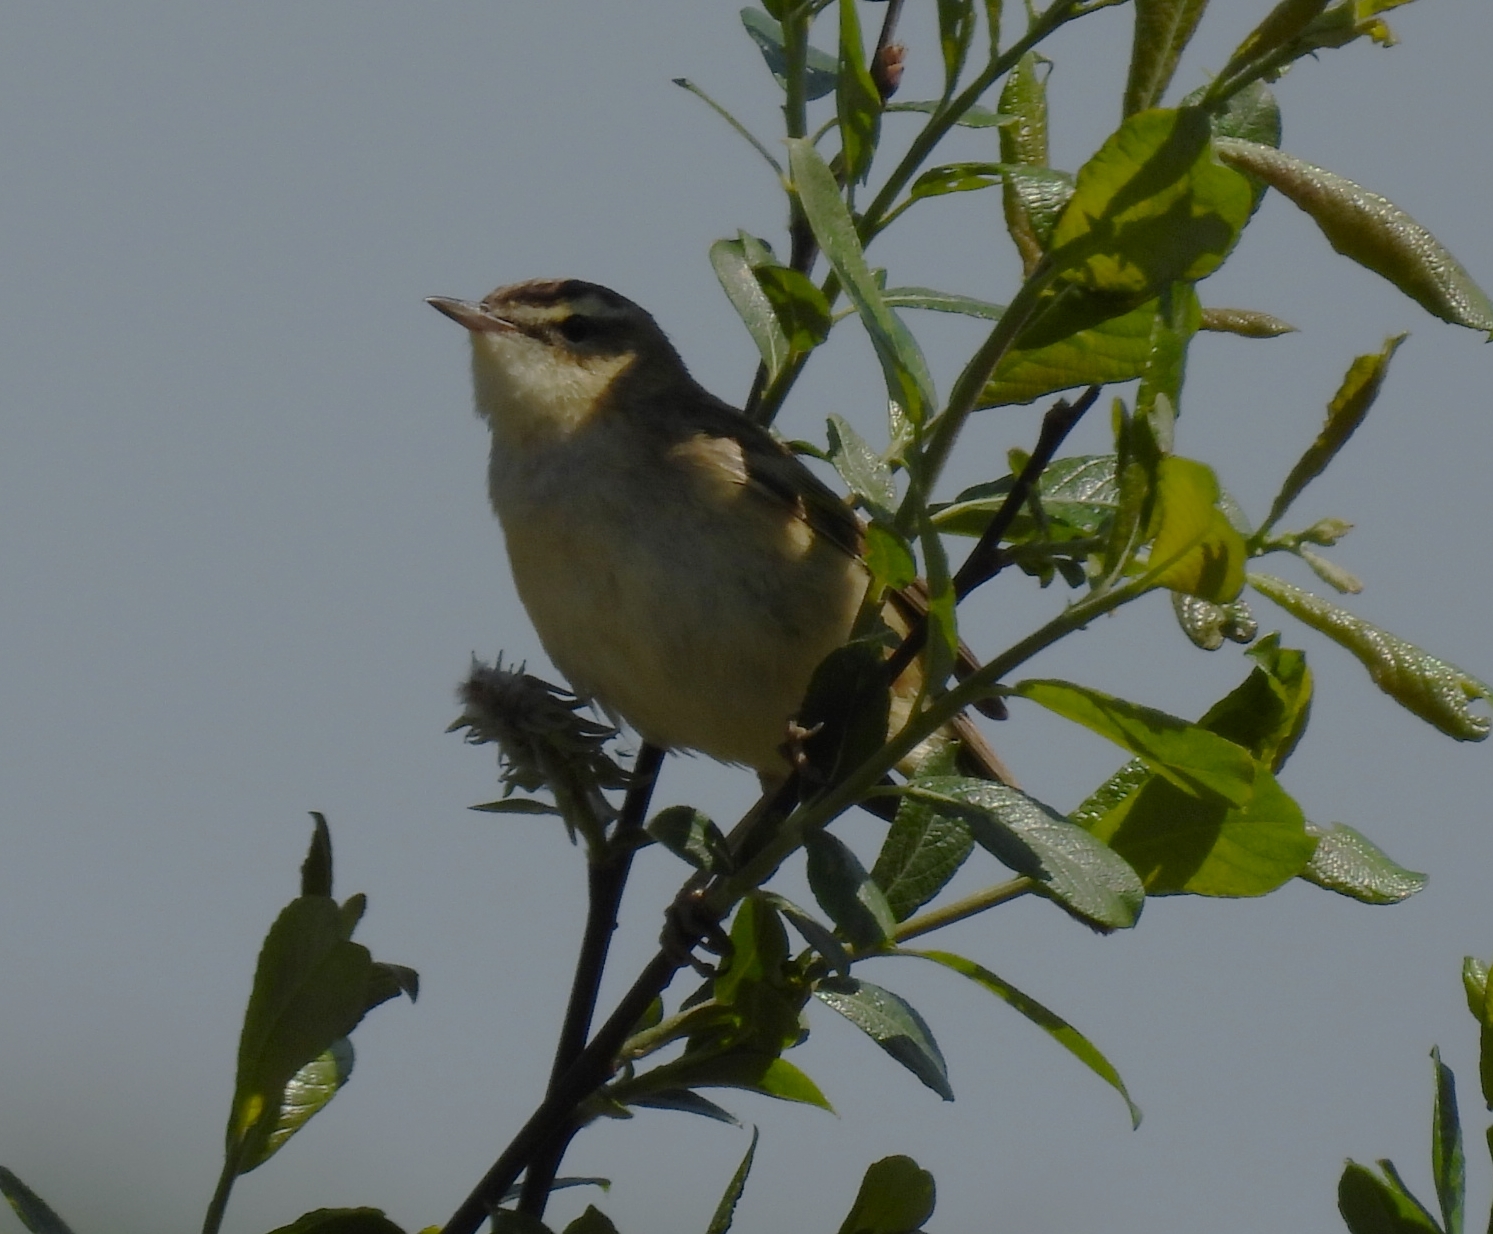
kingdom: Animalia
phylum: Chordata
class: Aves
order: Passeriformes
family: Acrocephalidae
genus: Acrocephalus
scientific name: Acrocephalus schoenobaenus
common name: Sedge warbler
